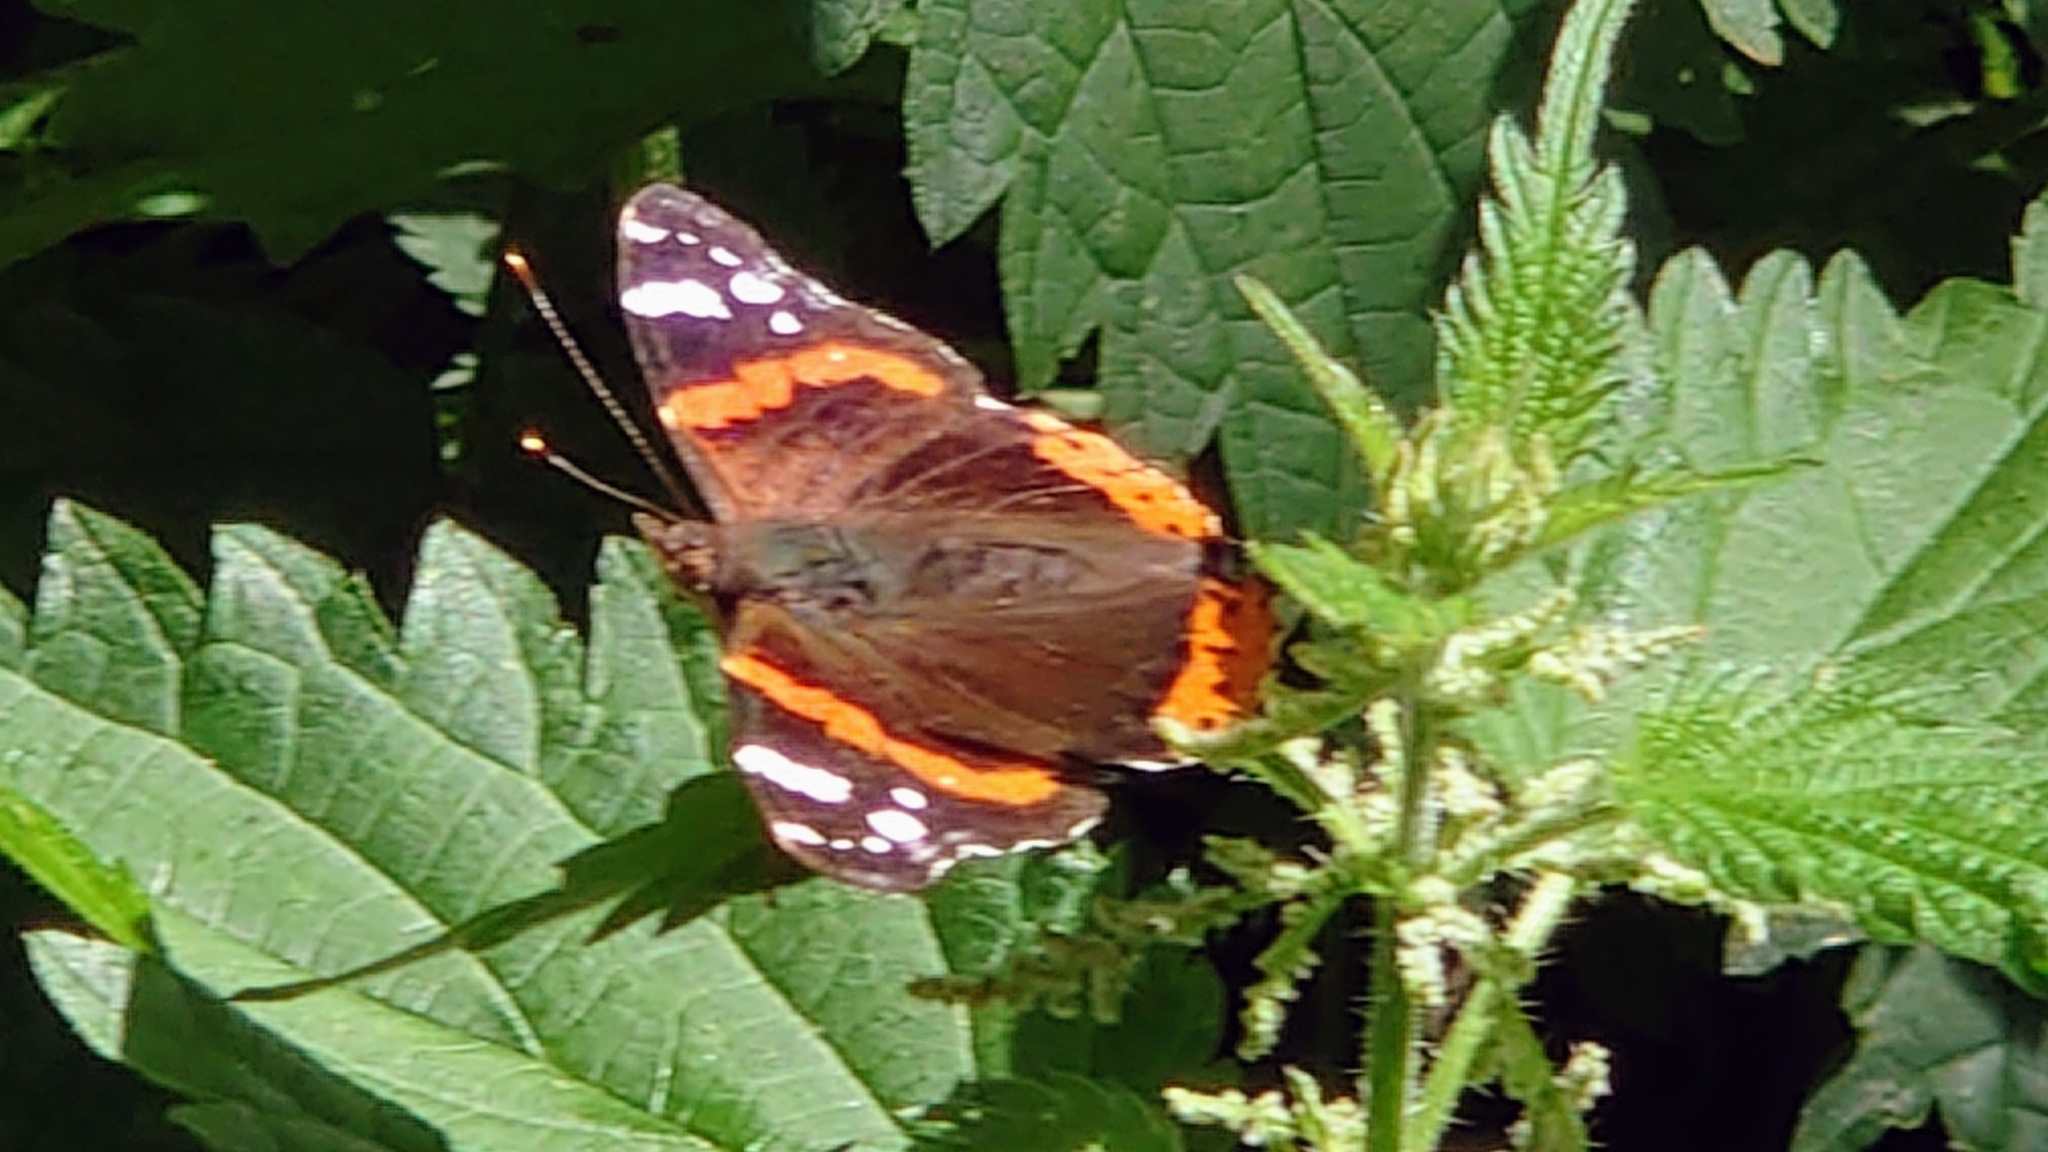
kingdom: Animalia
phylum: Arthropoda
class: Insecta
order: Lepidoptera
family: Nymphalidae
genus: Vanessa
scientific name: Vanessa atalanta
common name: Red admiral
